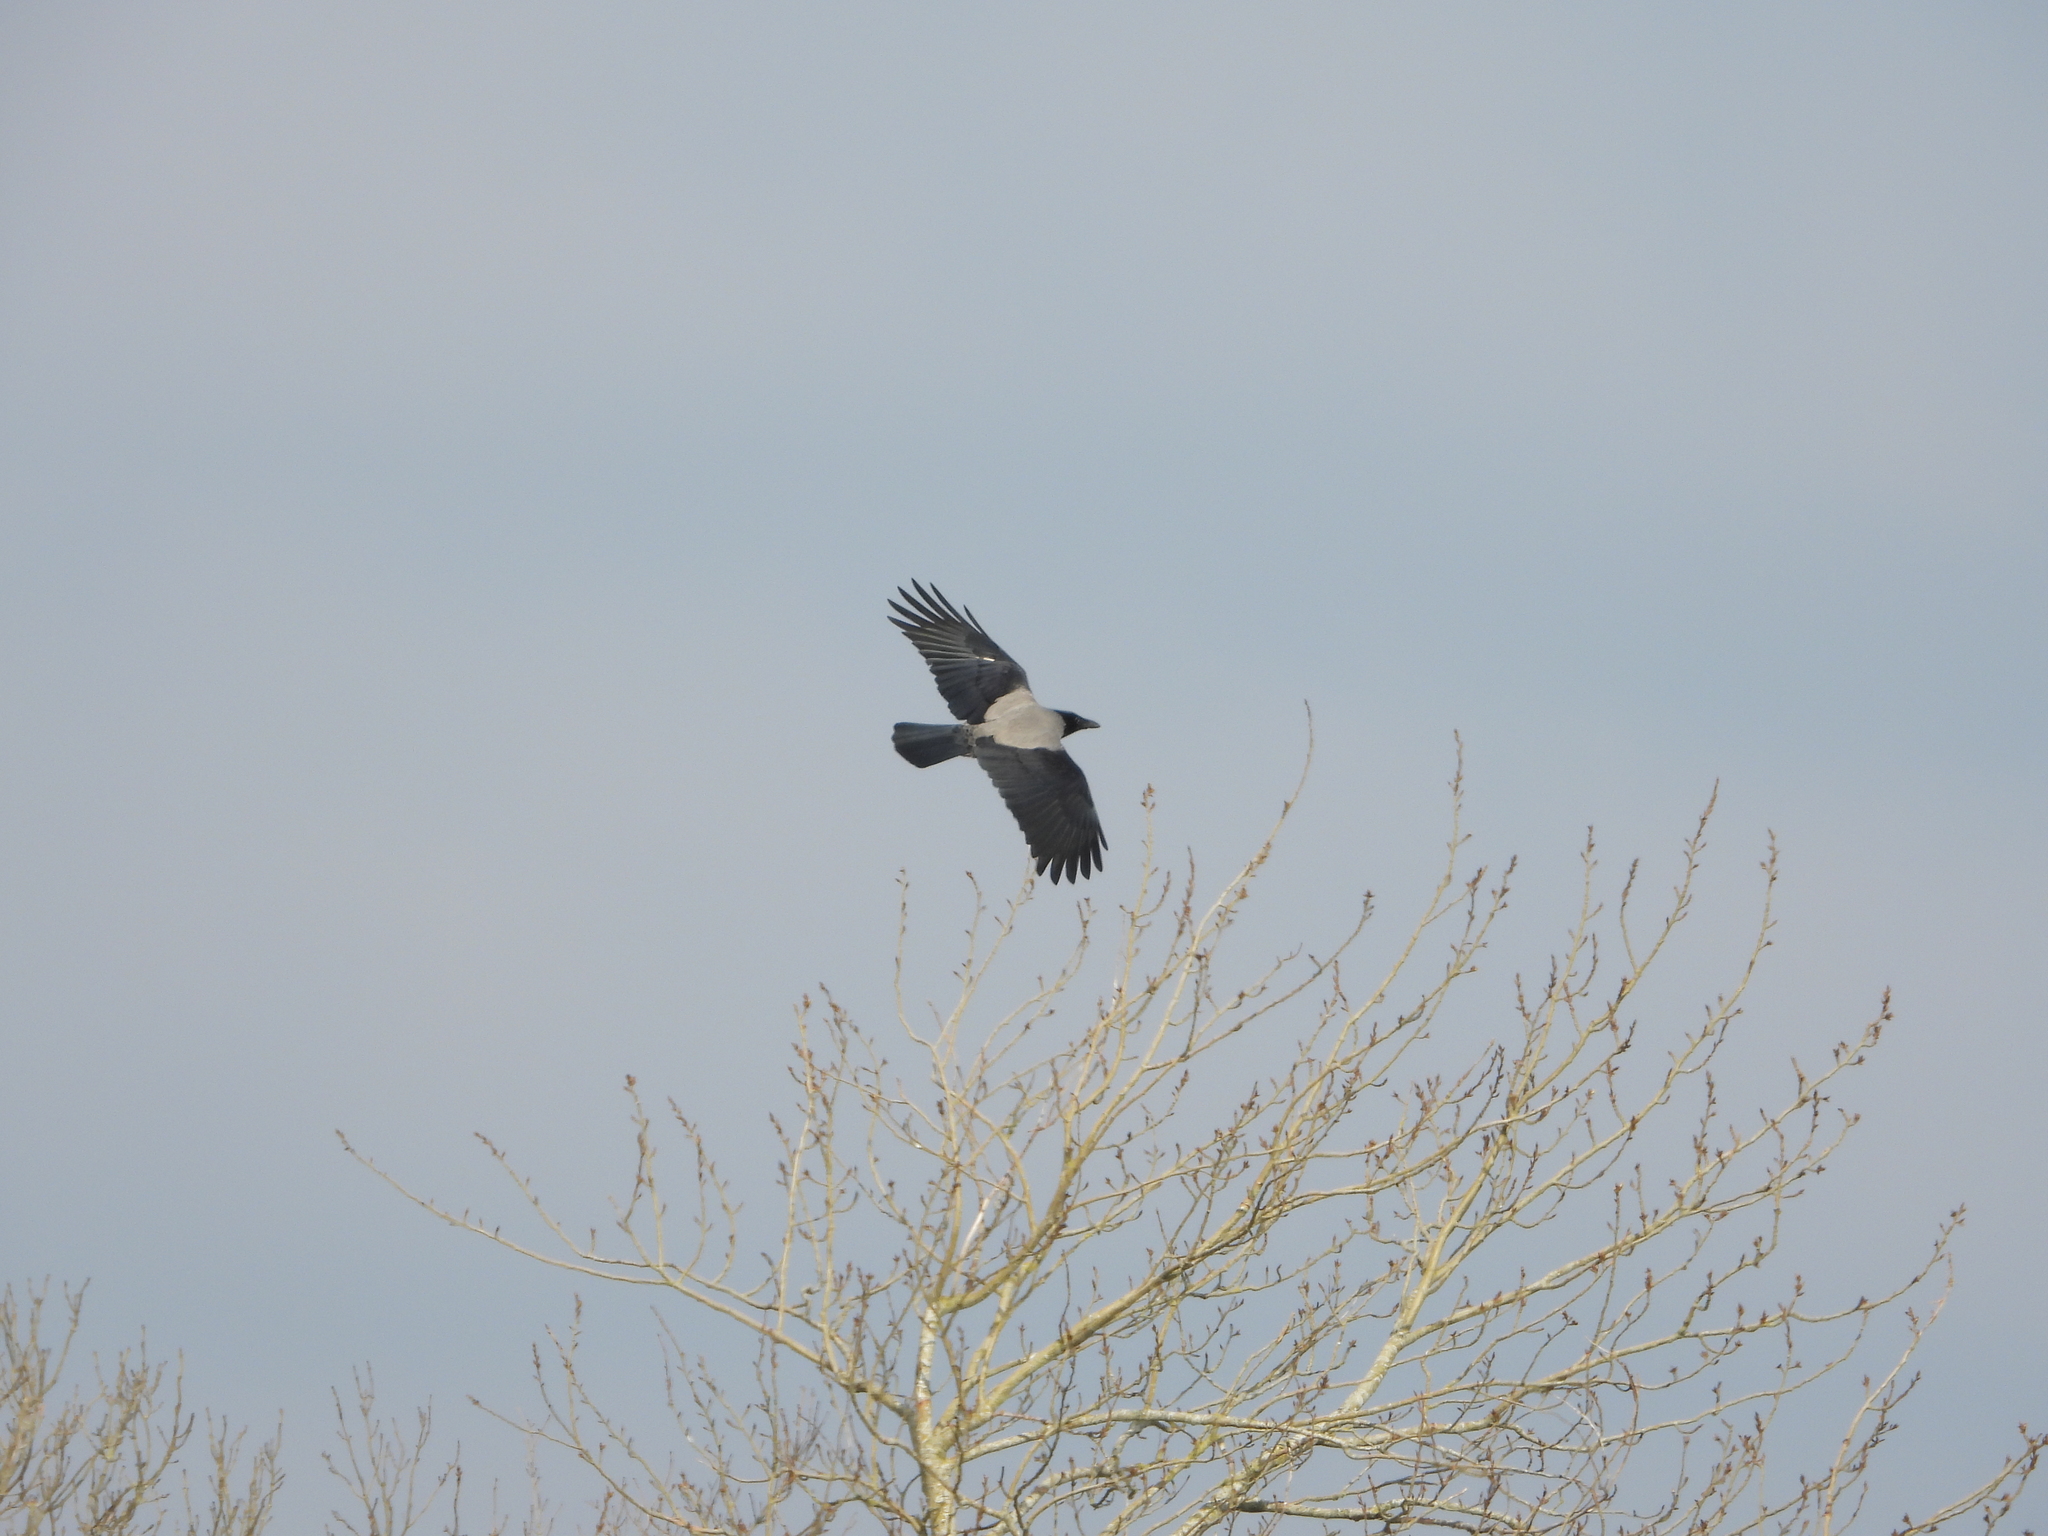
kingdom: Animalia
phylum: Chordata
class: Aves
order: Passeriformes
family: Corvidae
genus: Corvus
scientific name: Corvus cornix
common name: Hooded crow
